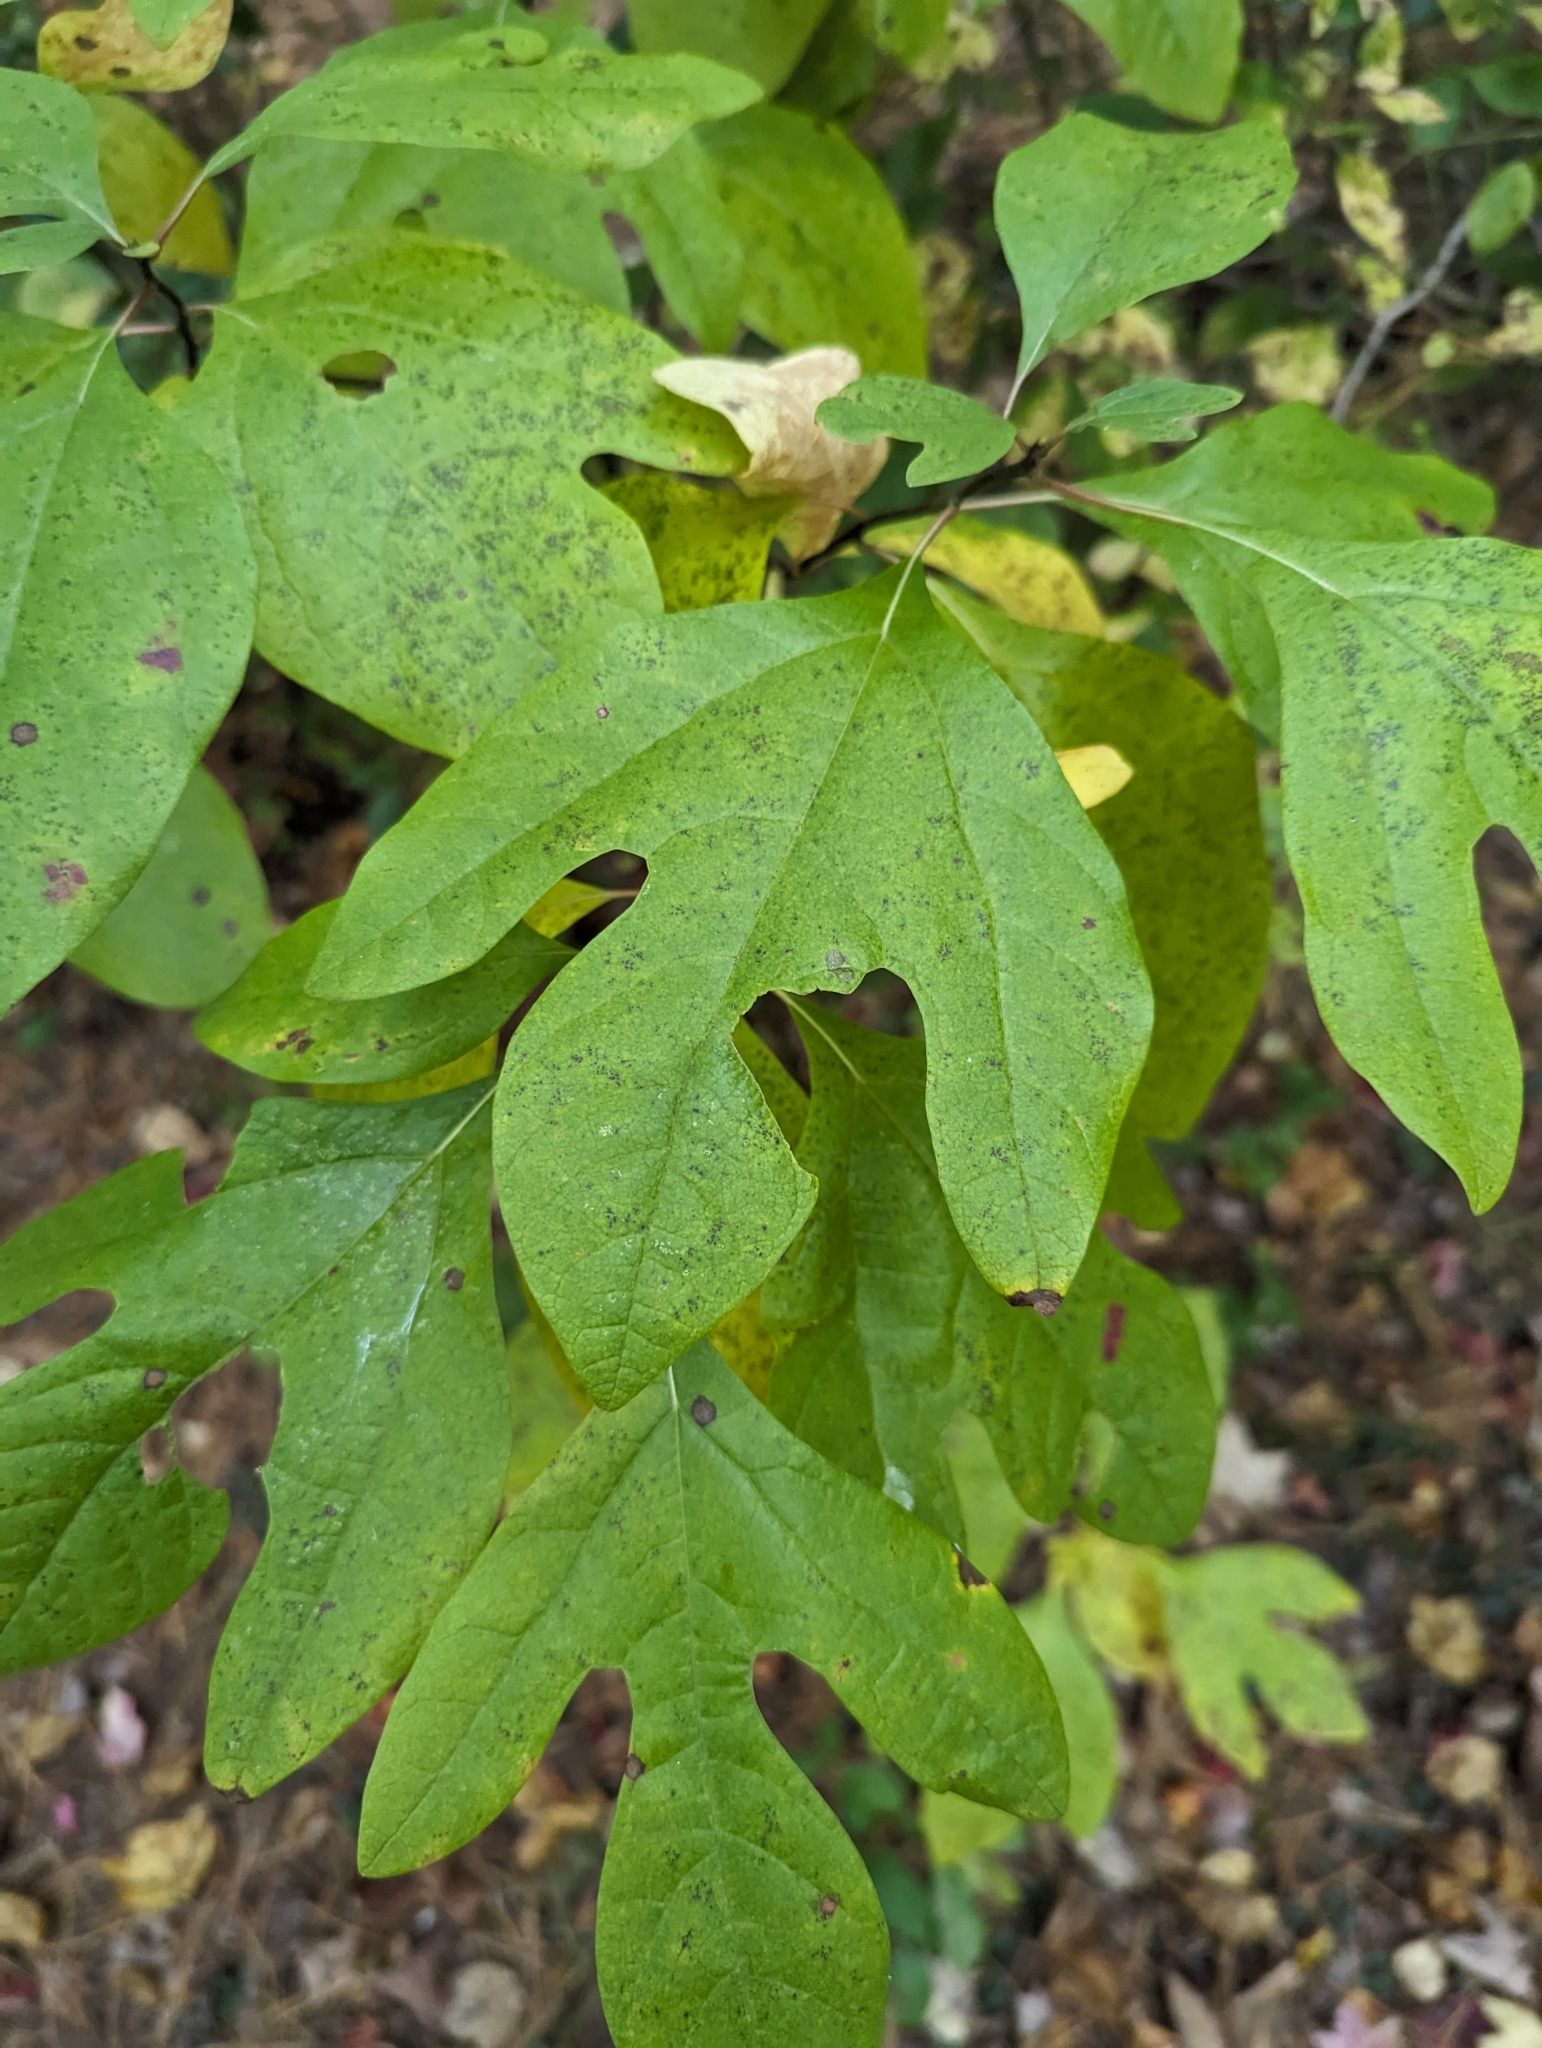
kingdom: Plantae
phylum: Tracheophyta
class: Magnoliopsida
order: Laurales
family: Lauraceae
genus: Sassafras
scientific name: Sassafras albidum
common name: Sassafras
